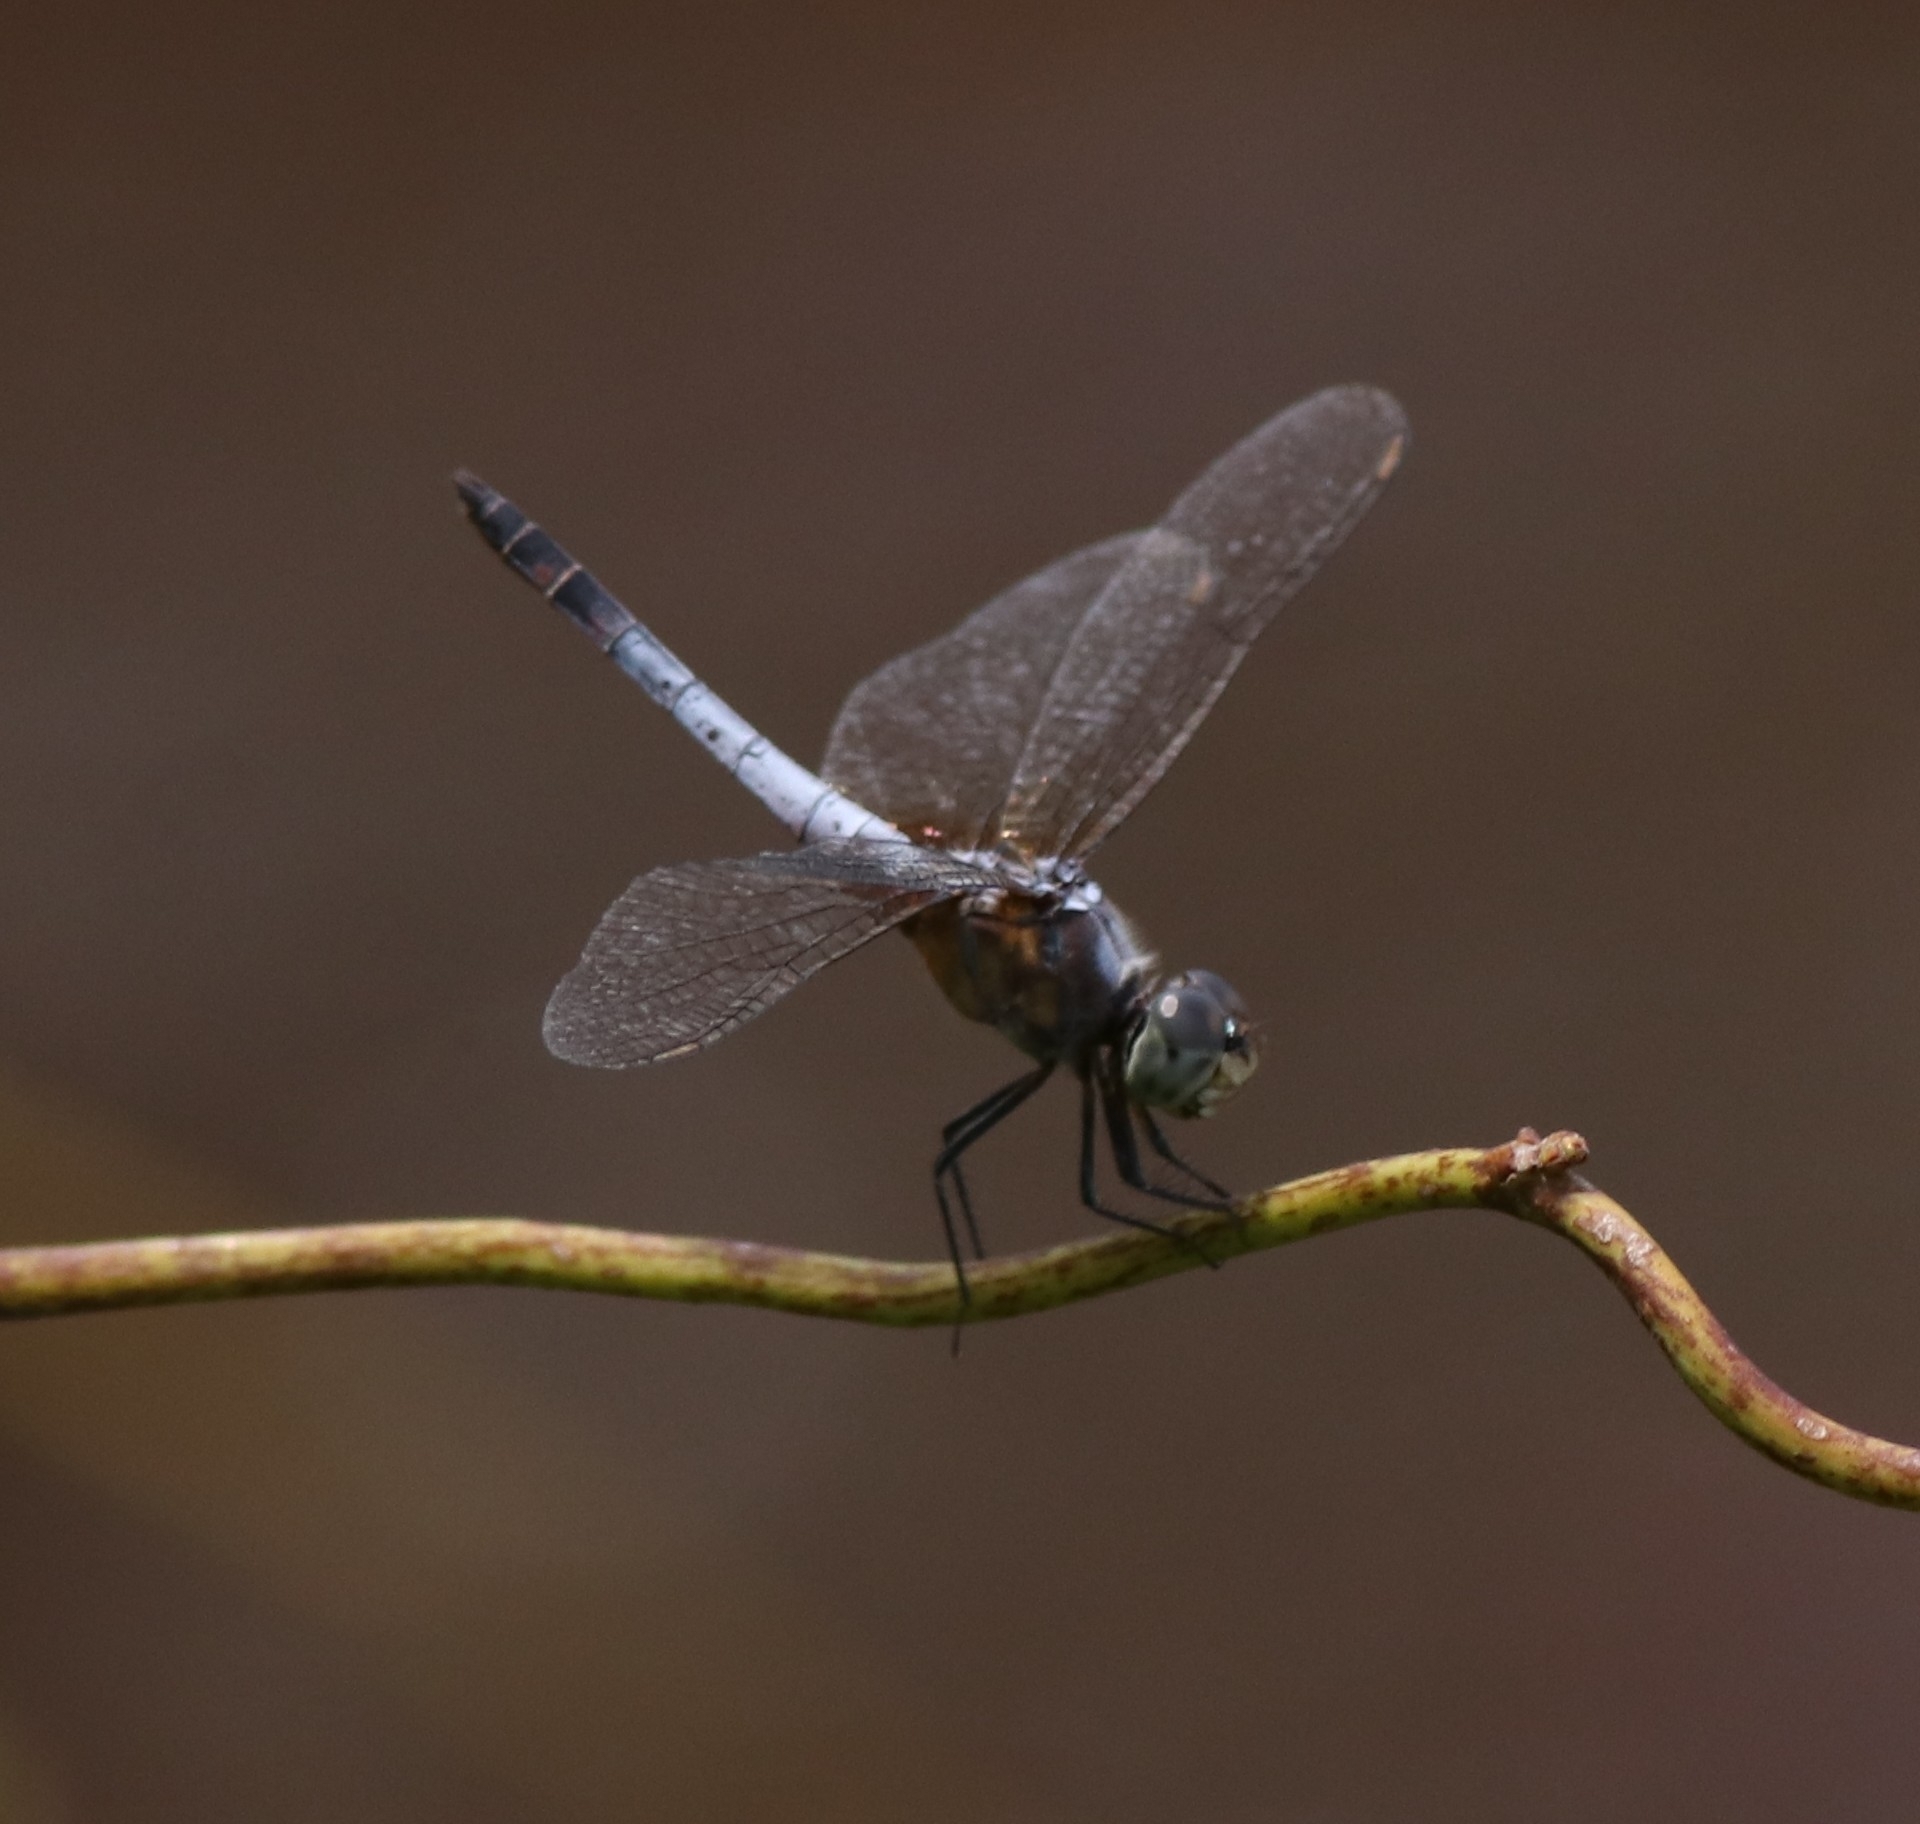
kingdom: Animalia
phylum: Arthropoda
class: Insecta
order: Odonata
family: Libellulidae
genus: Brachydiplax
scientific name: Brachydiplax chalybea
